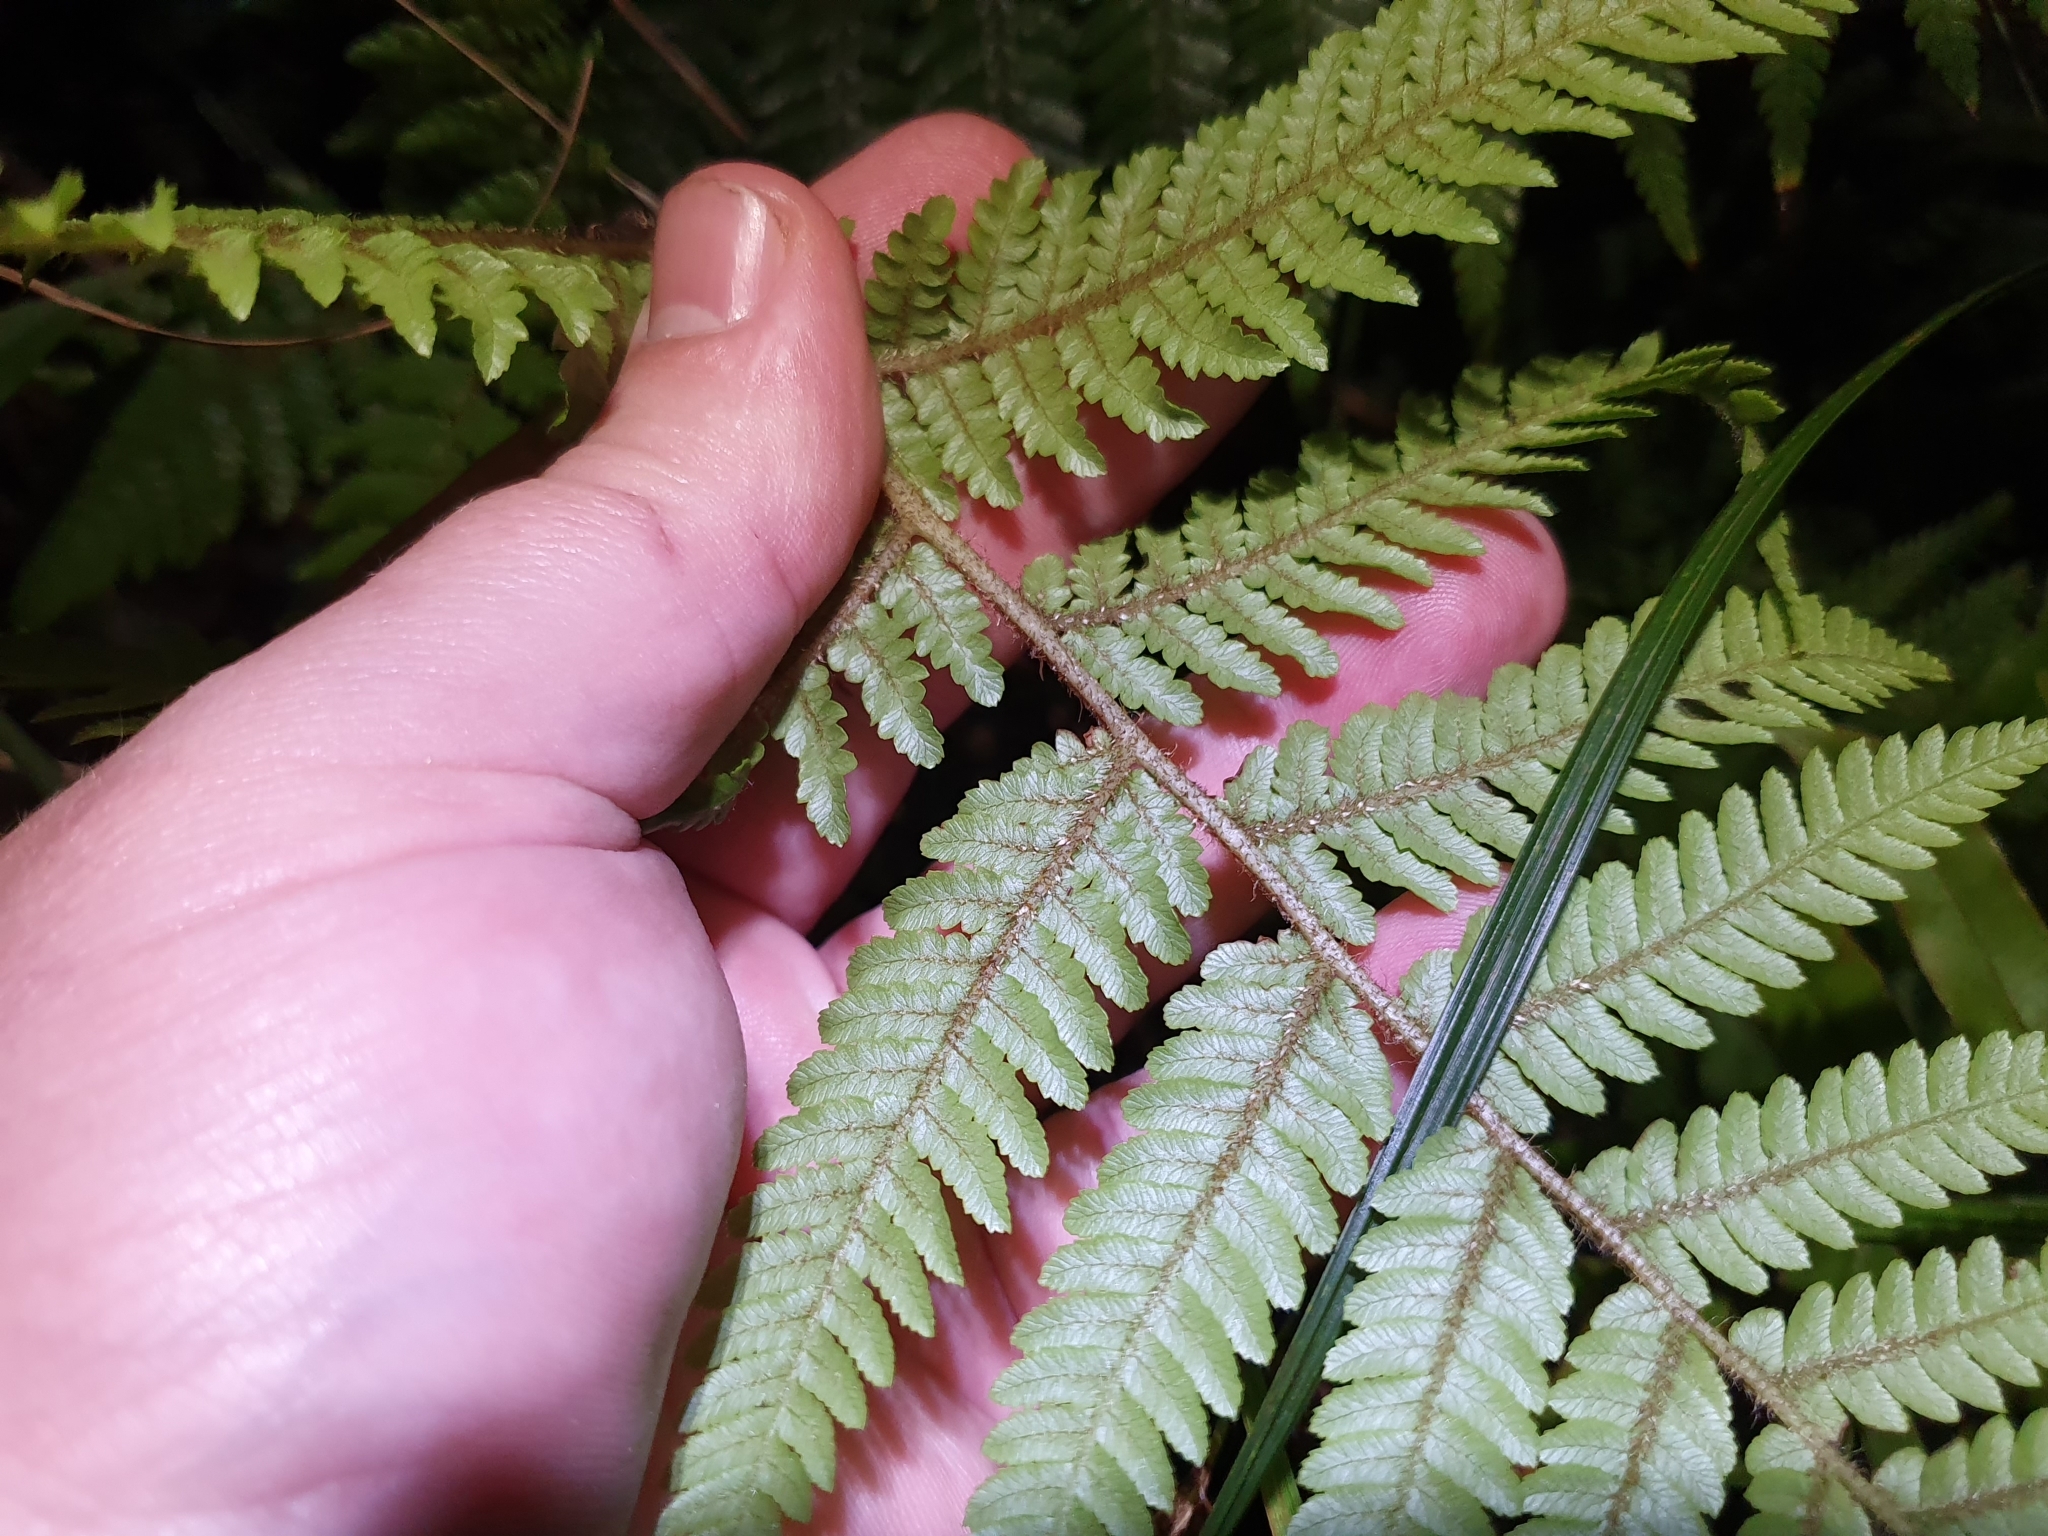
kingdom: Plantae
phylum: Tracheophyta
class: Polypodiopsida
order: Cyatheales
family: Cyatheaceae
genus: Sphaeropteris
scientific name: Sphaeropteris medullaris
